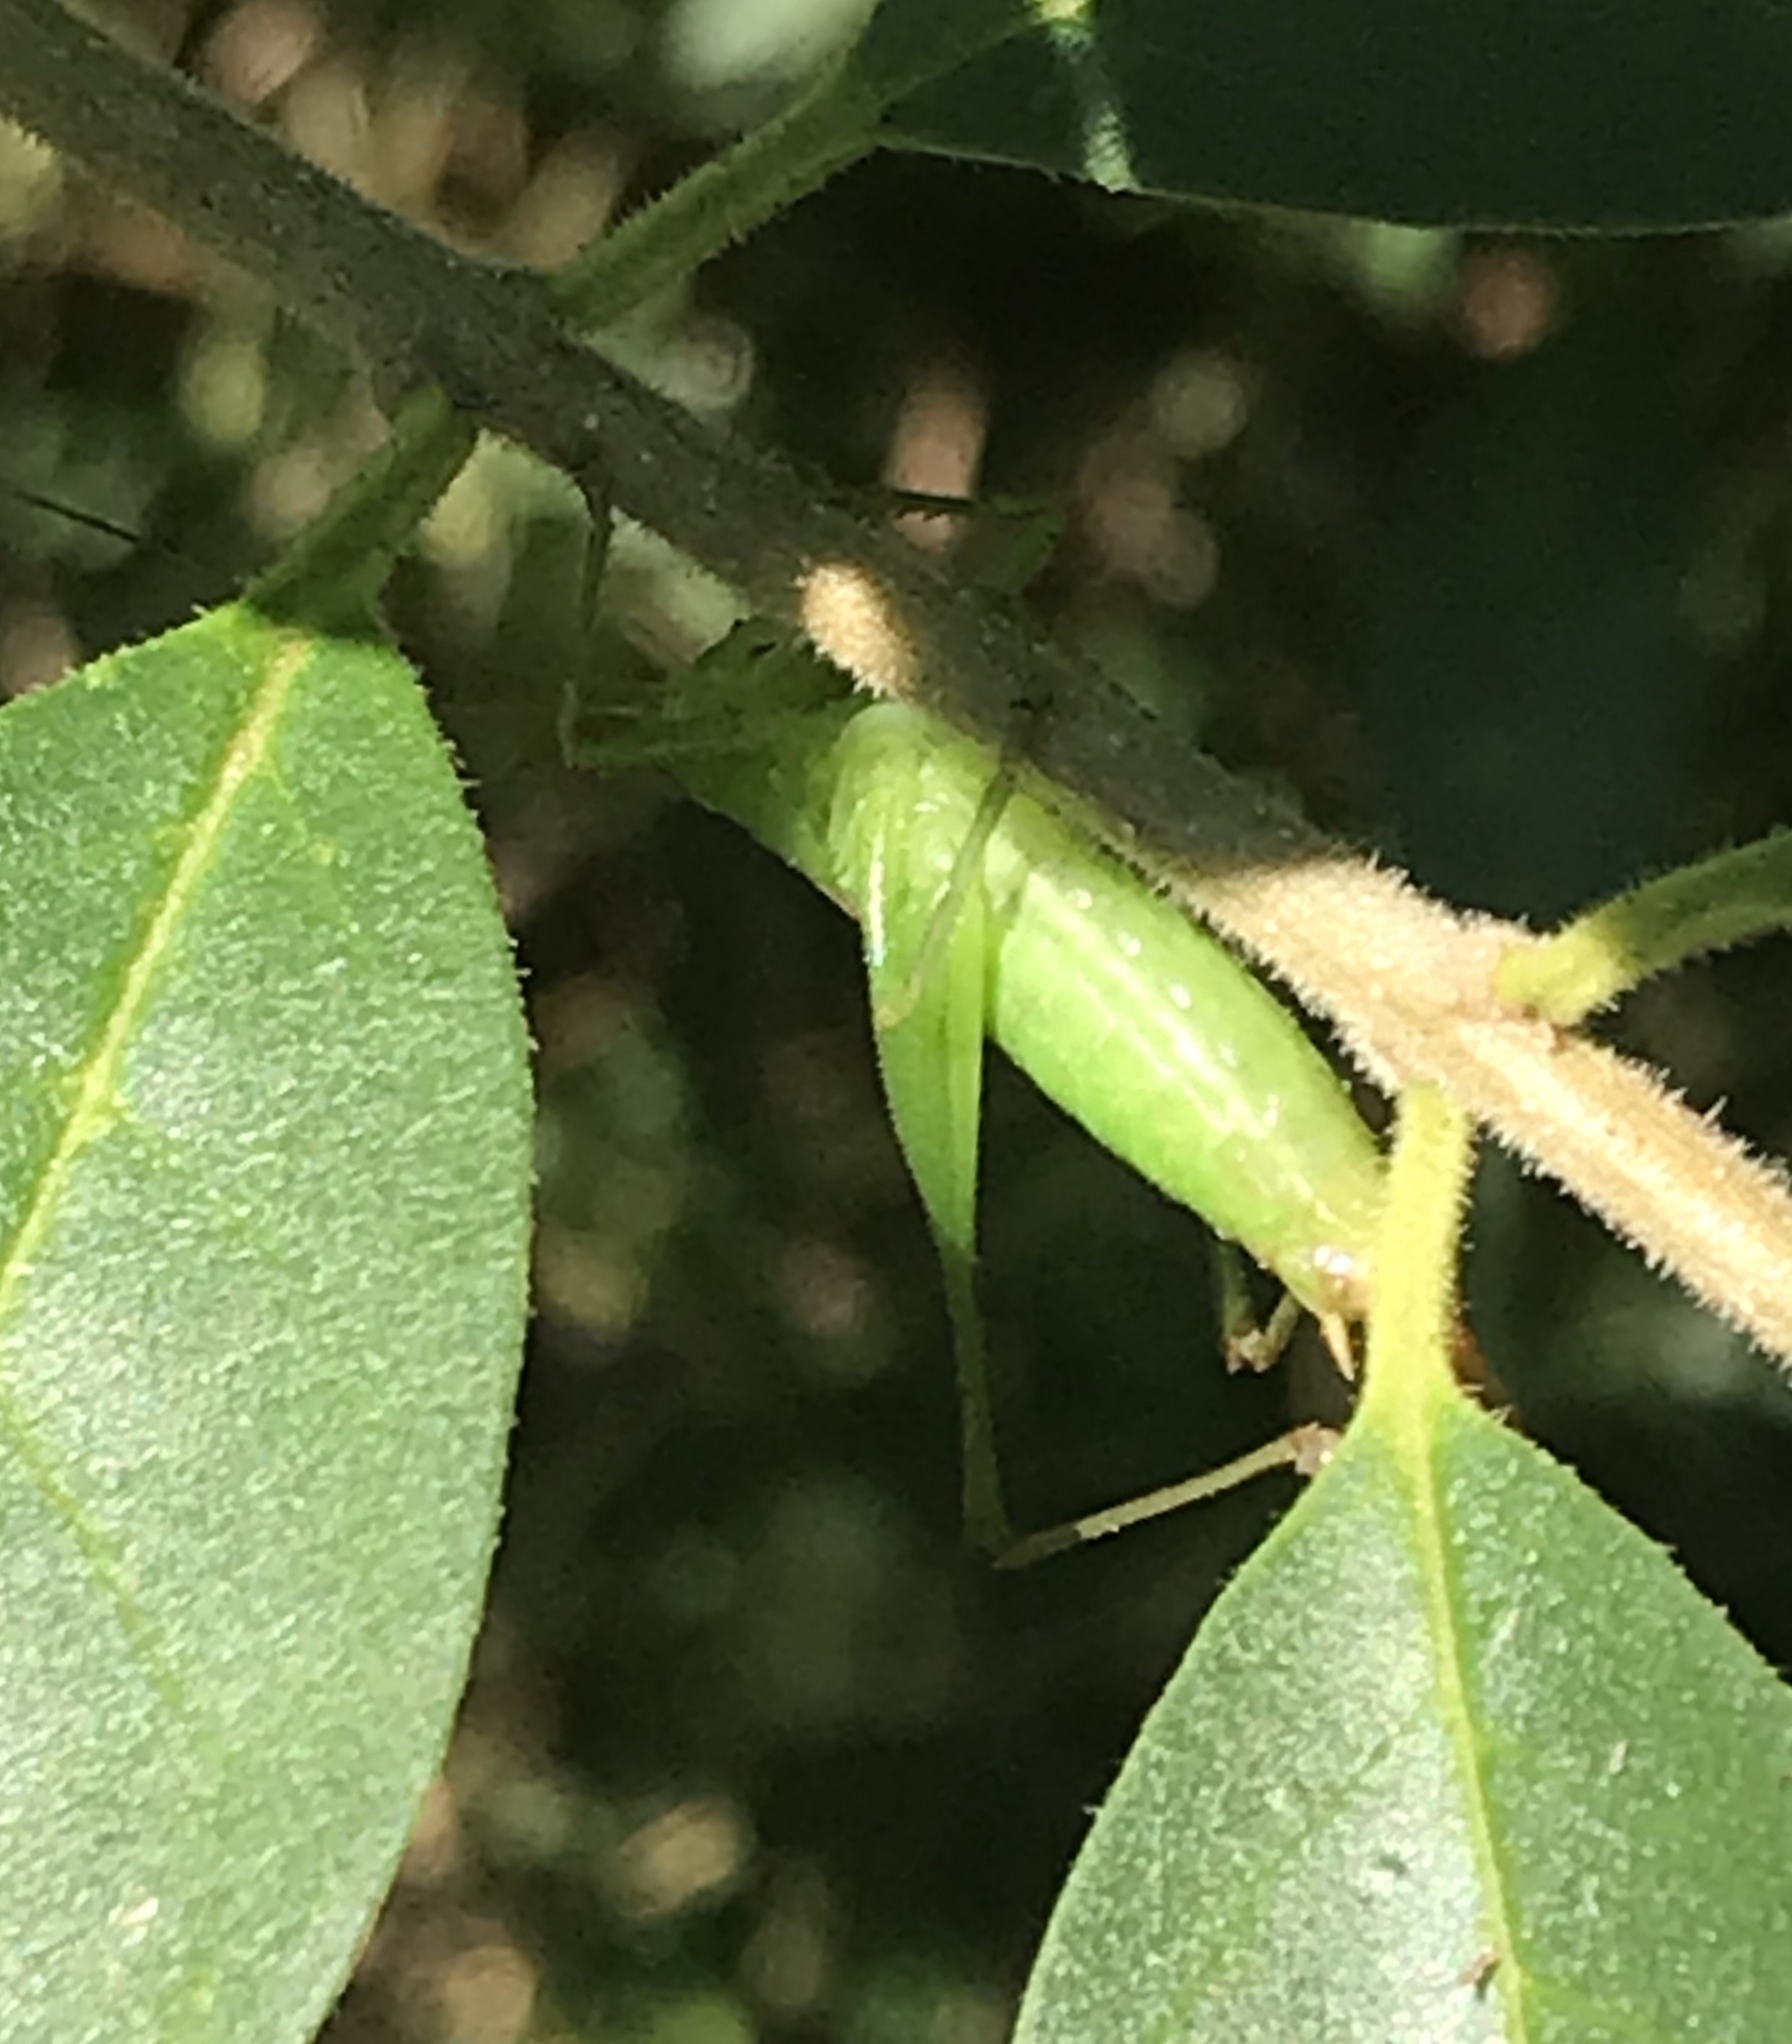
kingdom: Animalia
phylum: Arthropoda
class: Insecta
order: Orthoptera
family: Tettigoniidae
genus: Conocephalus
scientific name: Conocephalus brevipennis
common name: Short-winged meadow katydid
